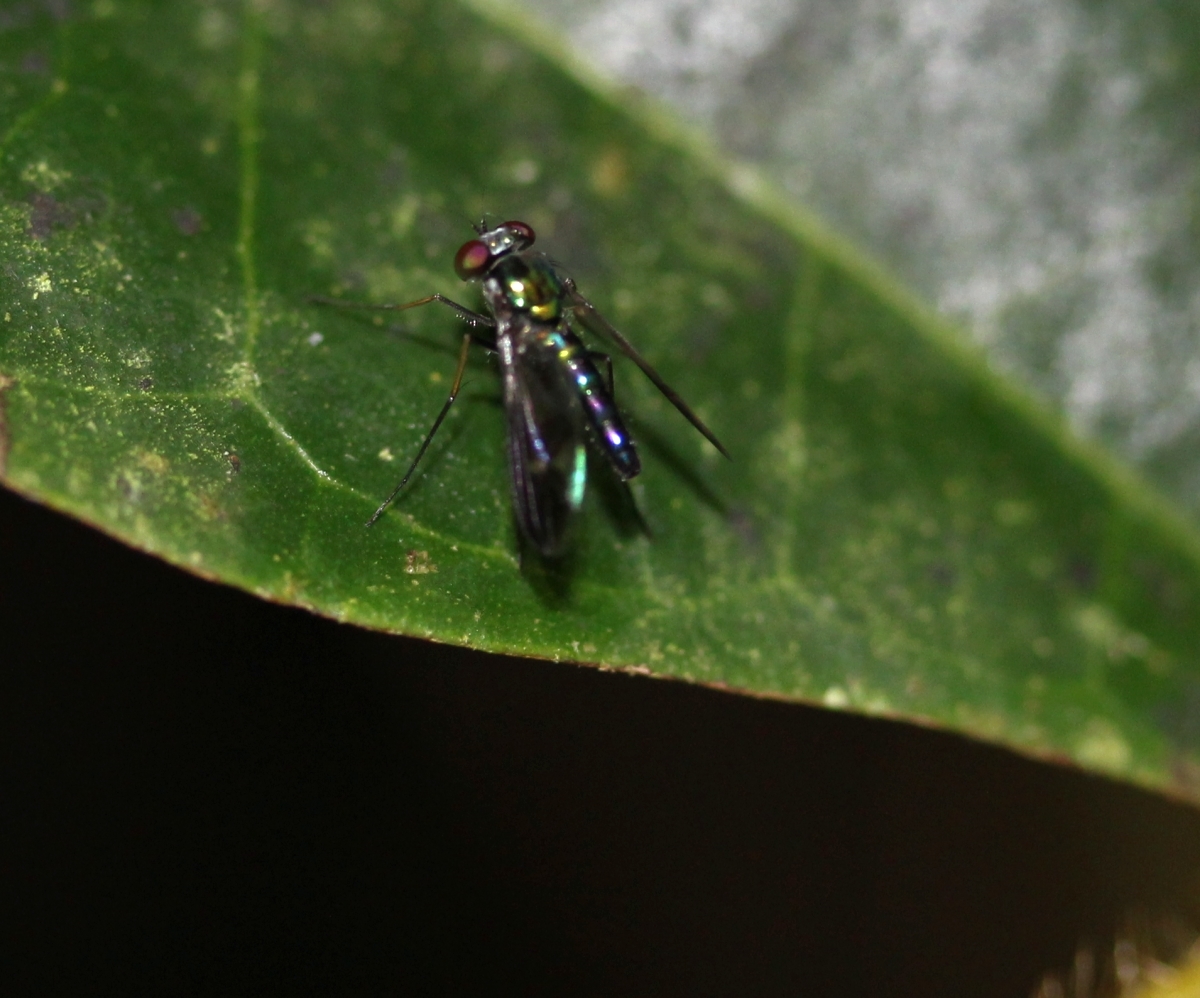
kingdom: Animalia
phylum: Arthropoda
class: Insecta
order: Diptera
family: Dolichopodidae
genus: Condylostylus
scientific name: Condylostylus
